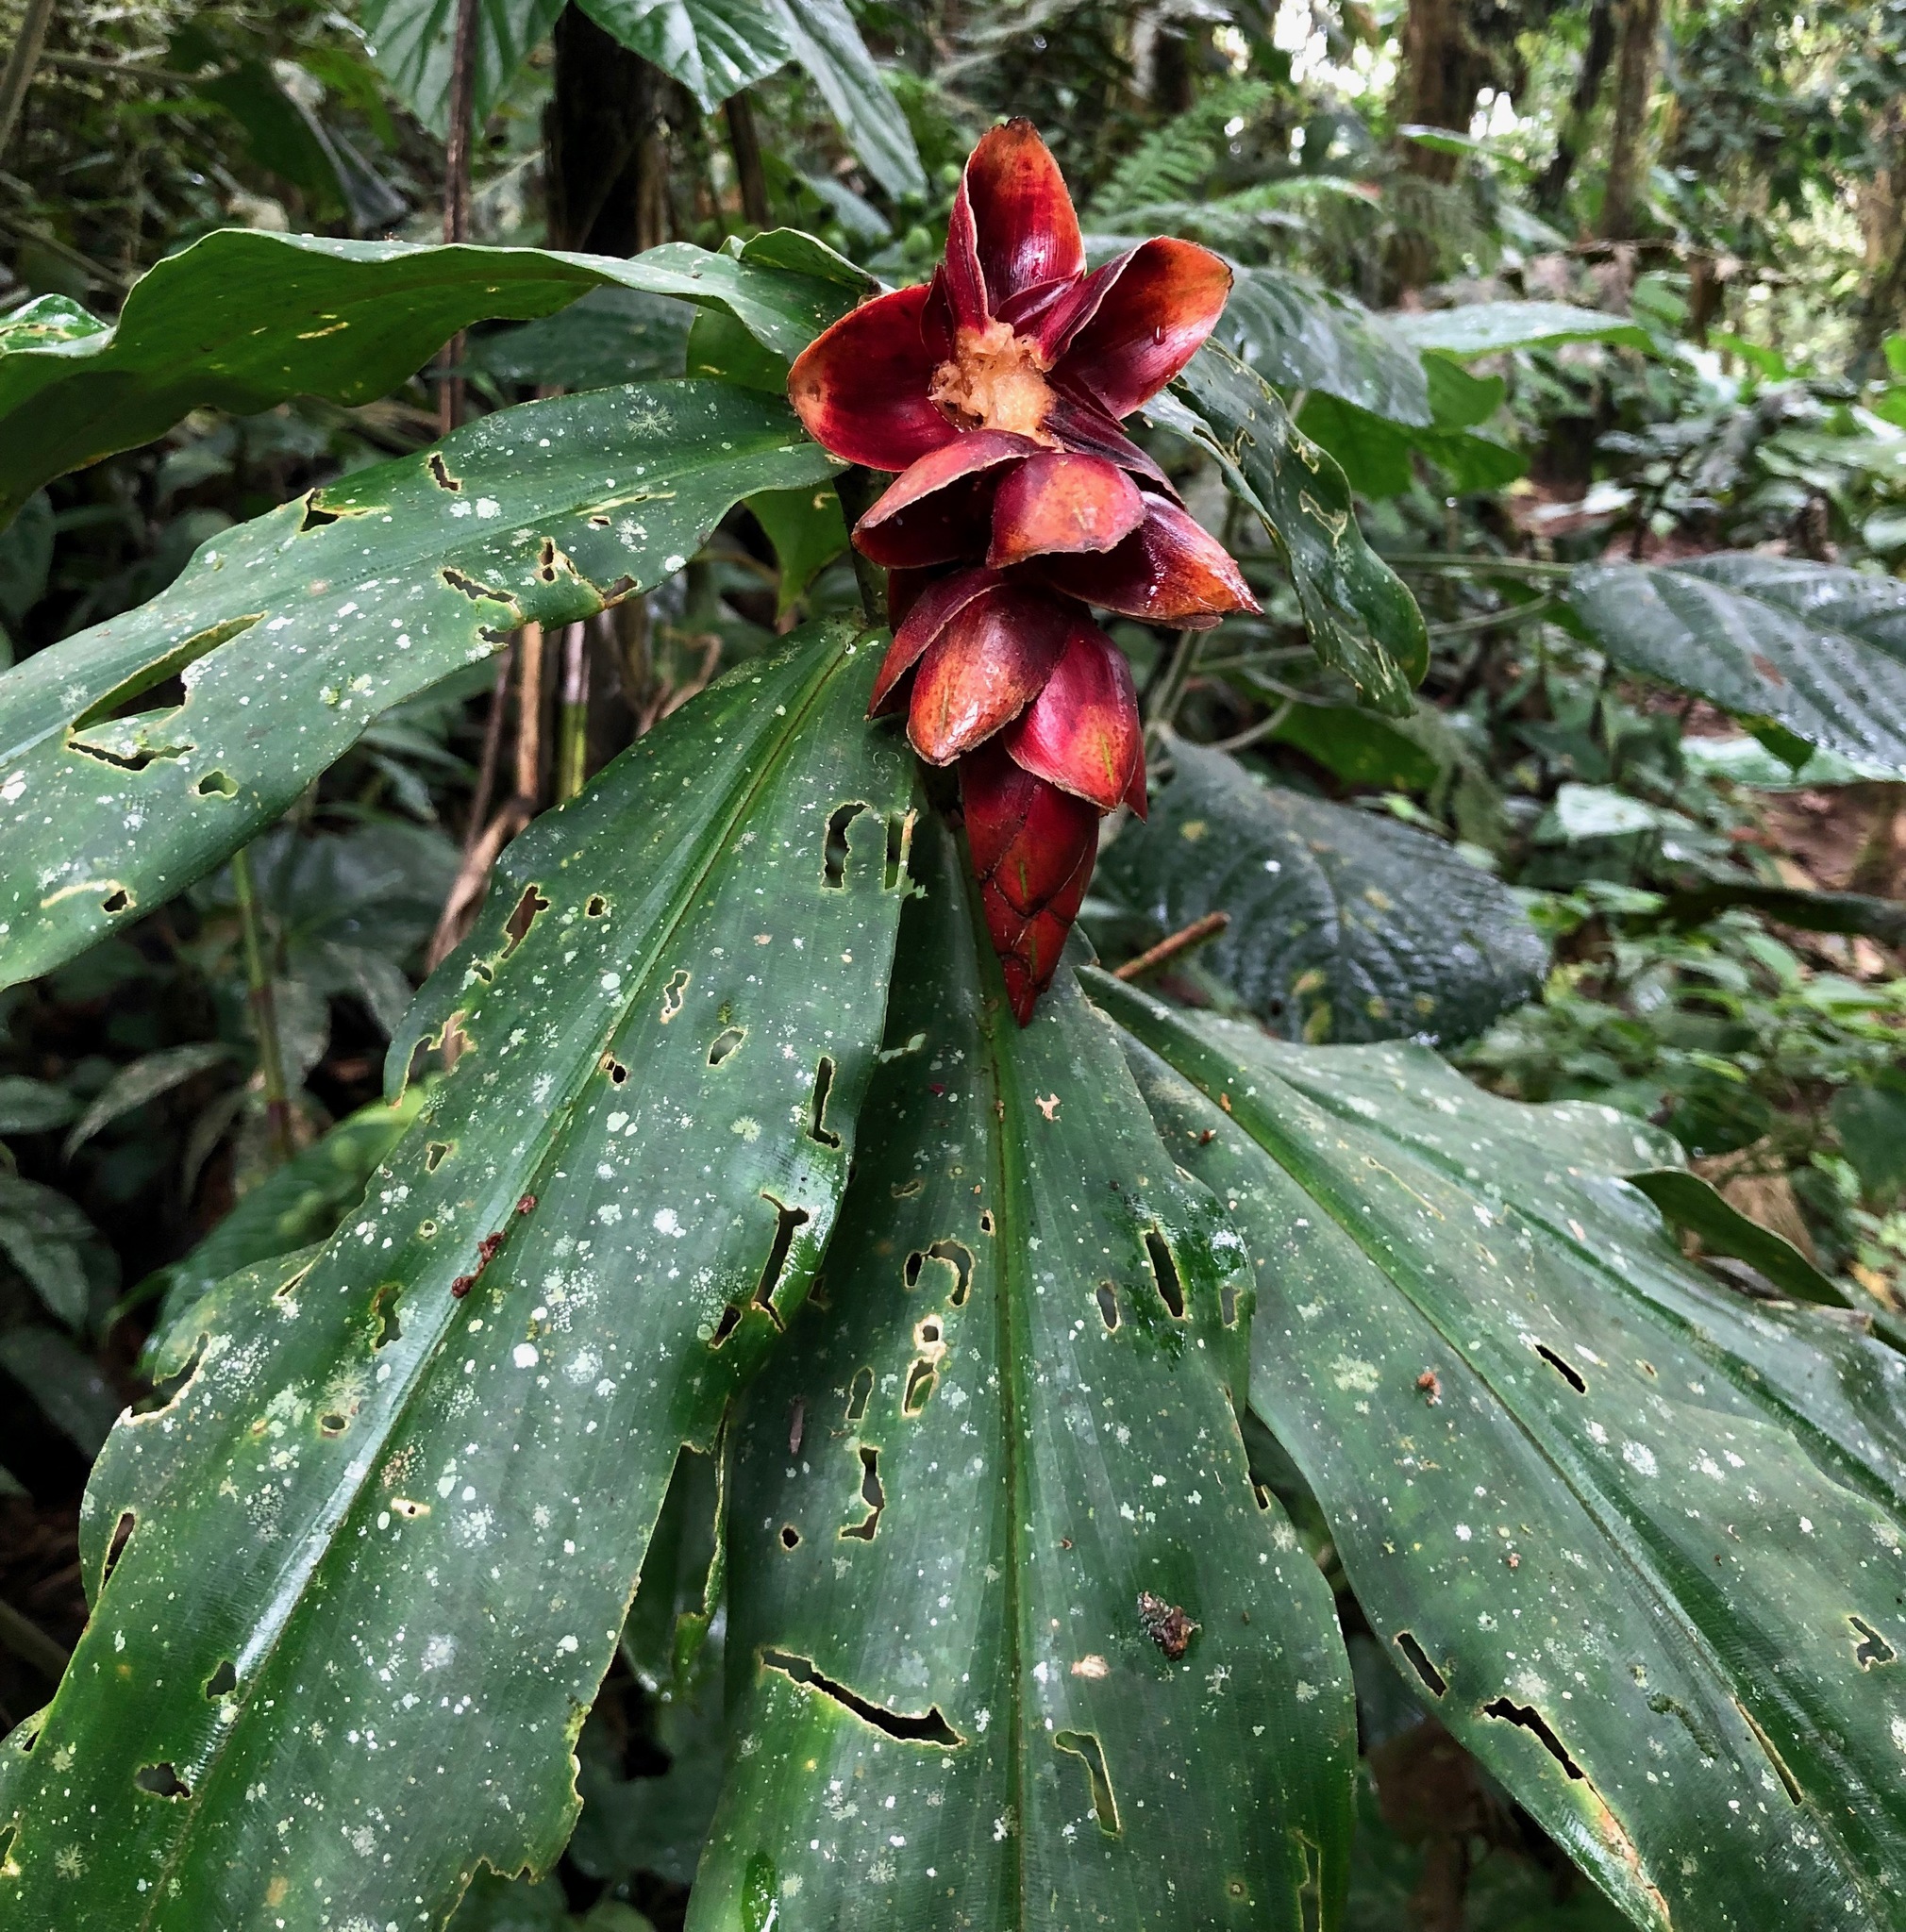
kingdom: Plantae
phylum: Tracheophyta
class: Liliopsida
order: Zingiberales
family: Costaceae
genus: Costus
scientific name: Costus pulverulentus
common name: Spiral ginger
